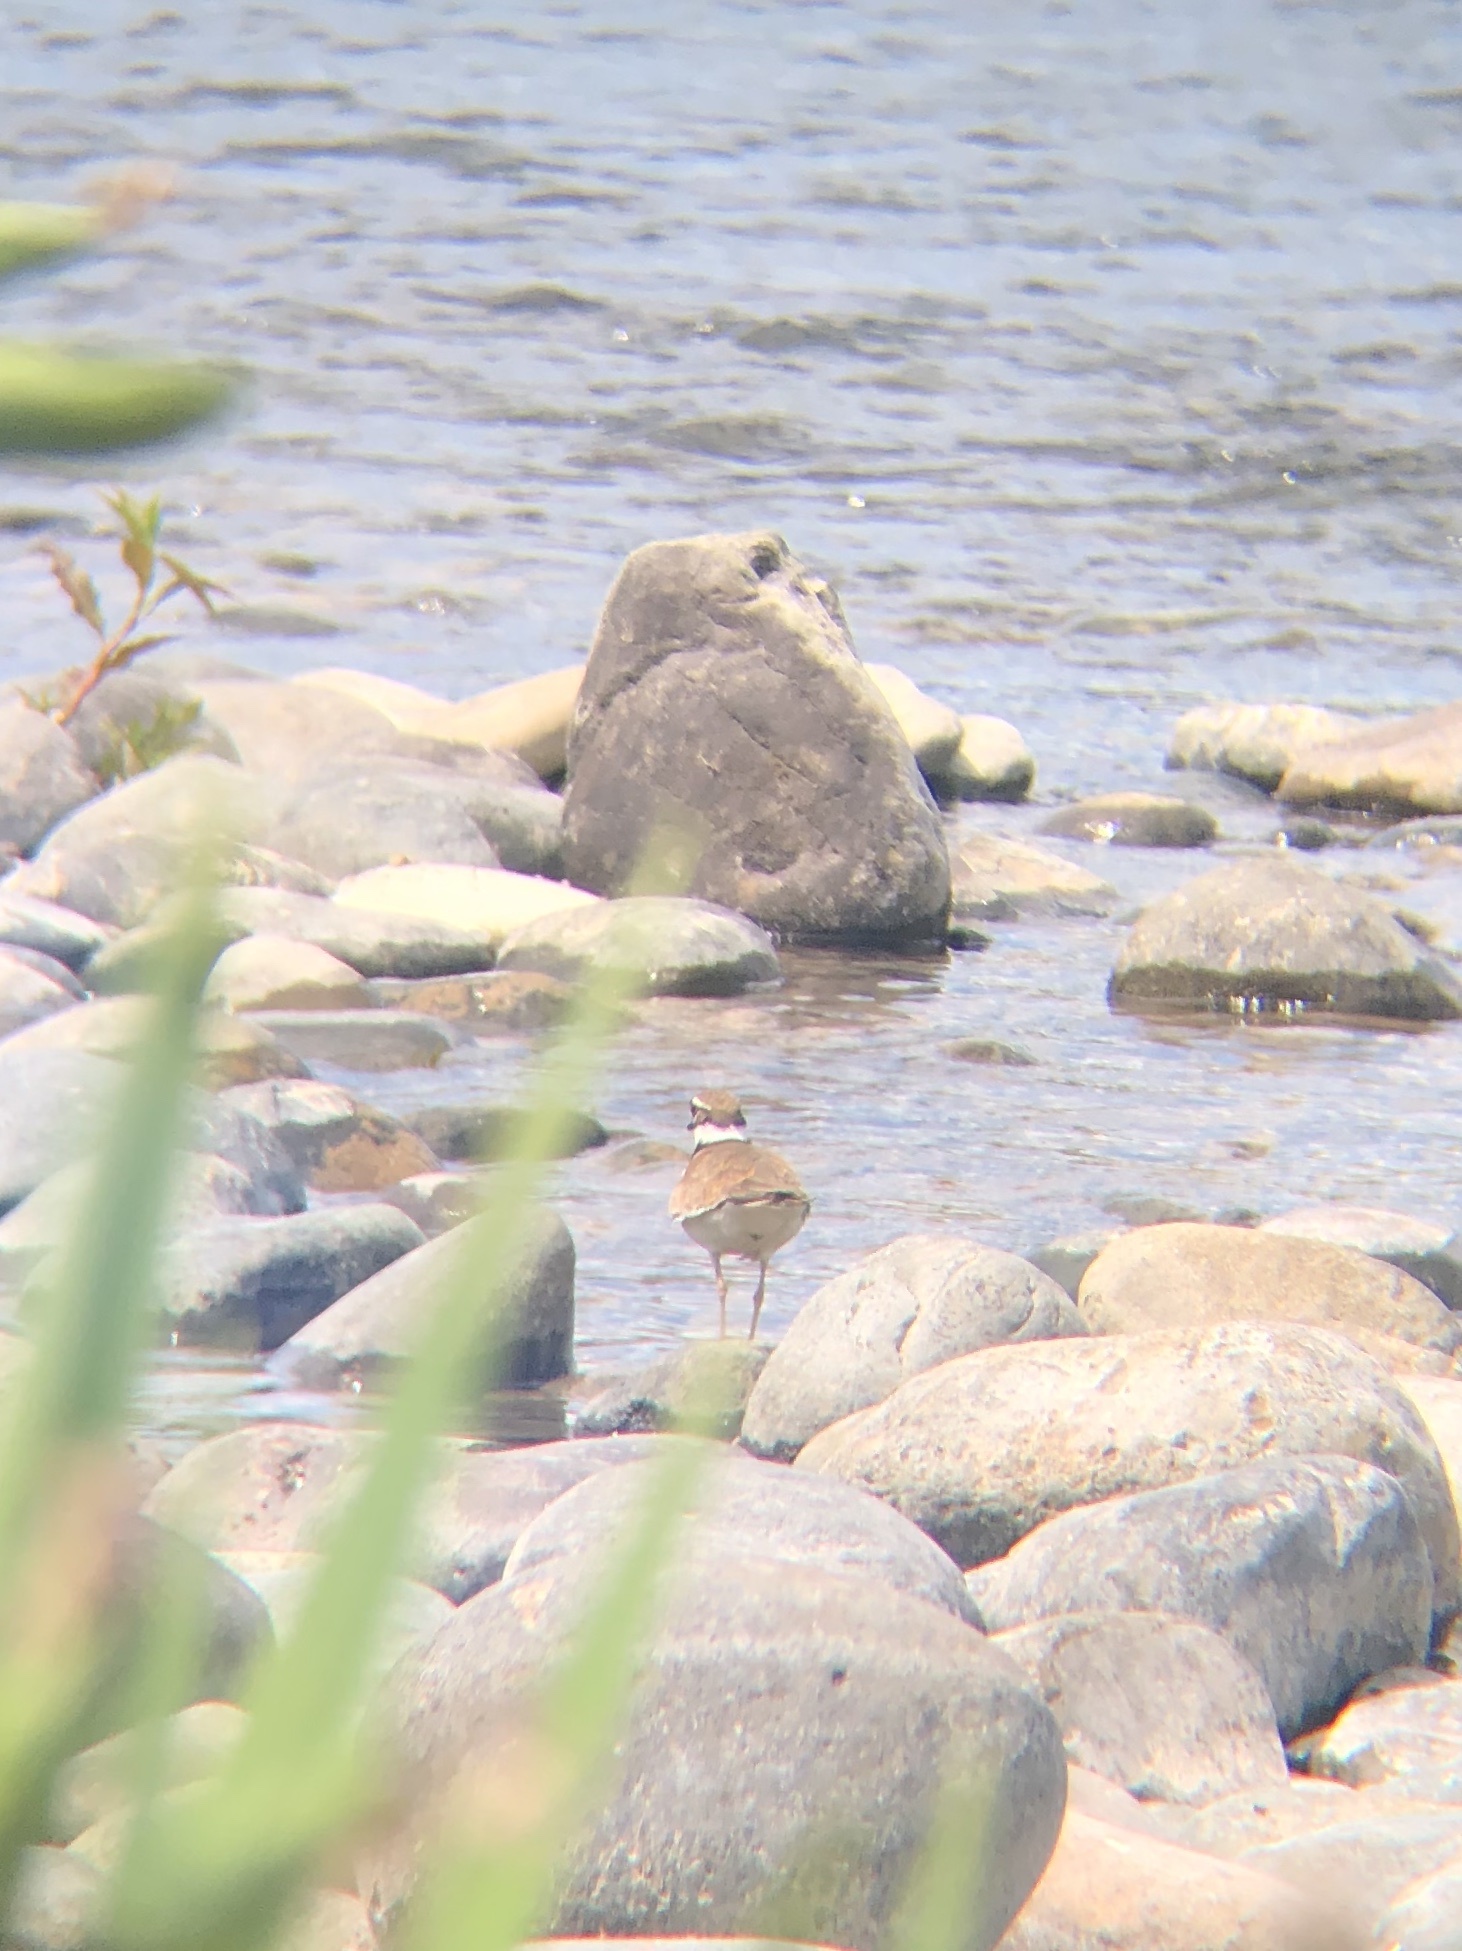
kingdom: Animalia
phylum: Chordata
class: Aves
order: Charadriiformes
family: Charadriidae
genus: Charadrius
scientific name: Charadrius vociferus
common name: Killdeer
